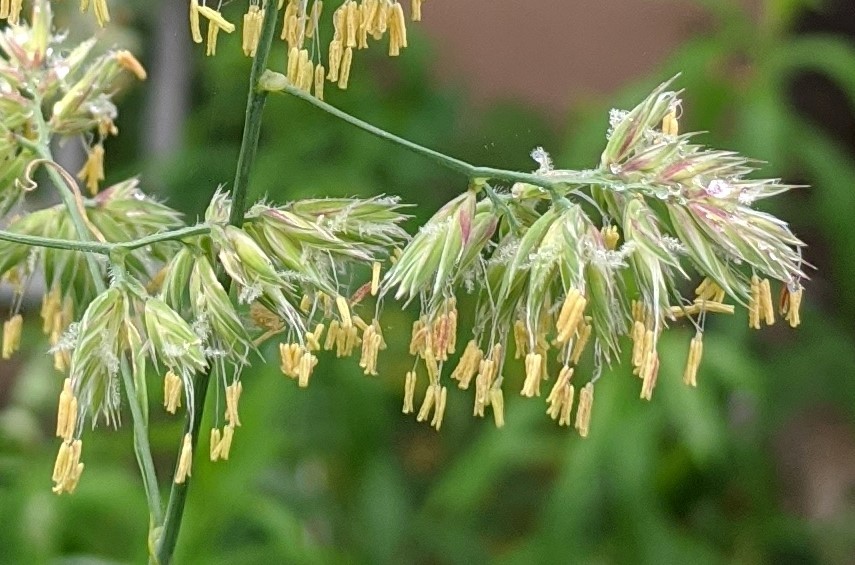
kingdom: Plantae
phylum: Tracheophyta
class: Liliopsida
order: Poales
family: Poaceae
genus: Dactylis
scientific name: Dactylis glomerata
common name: Orchardgrass
